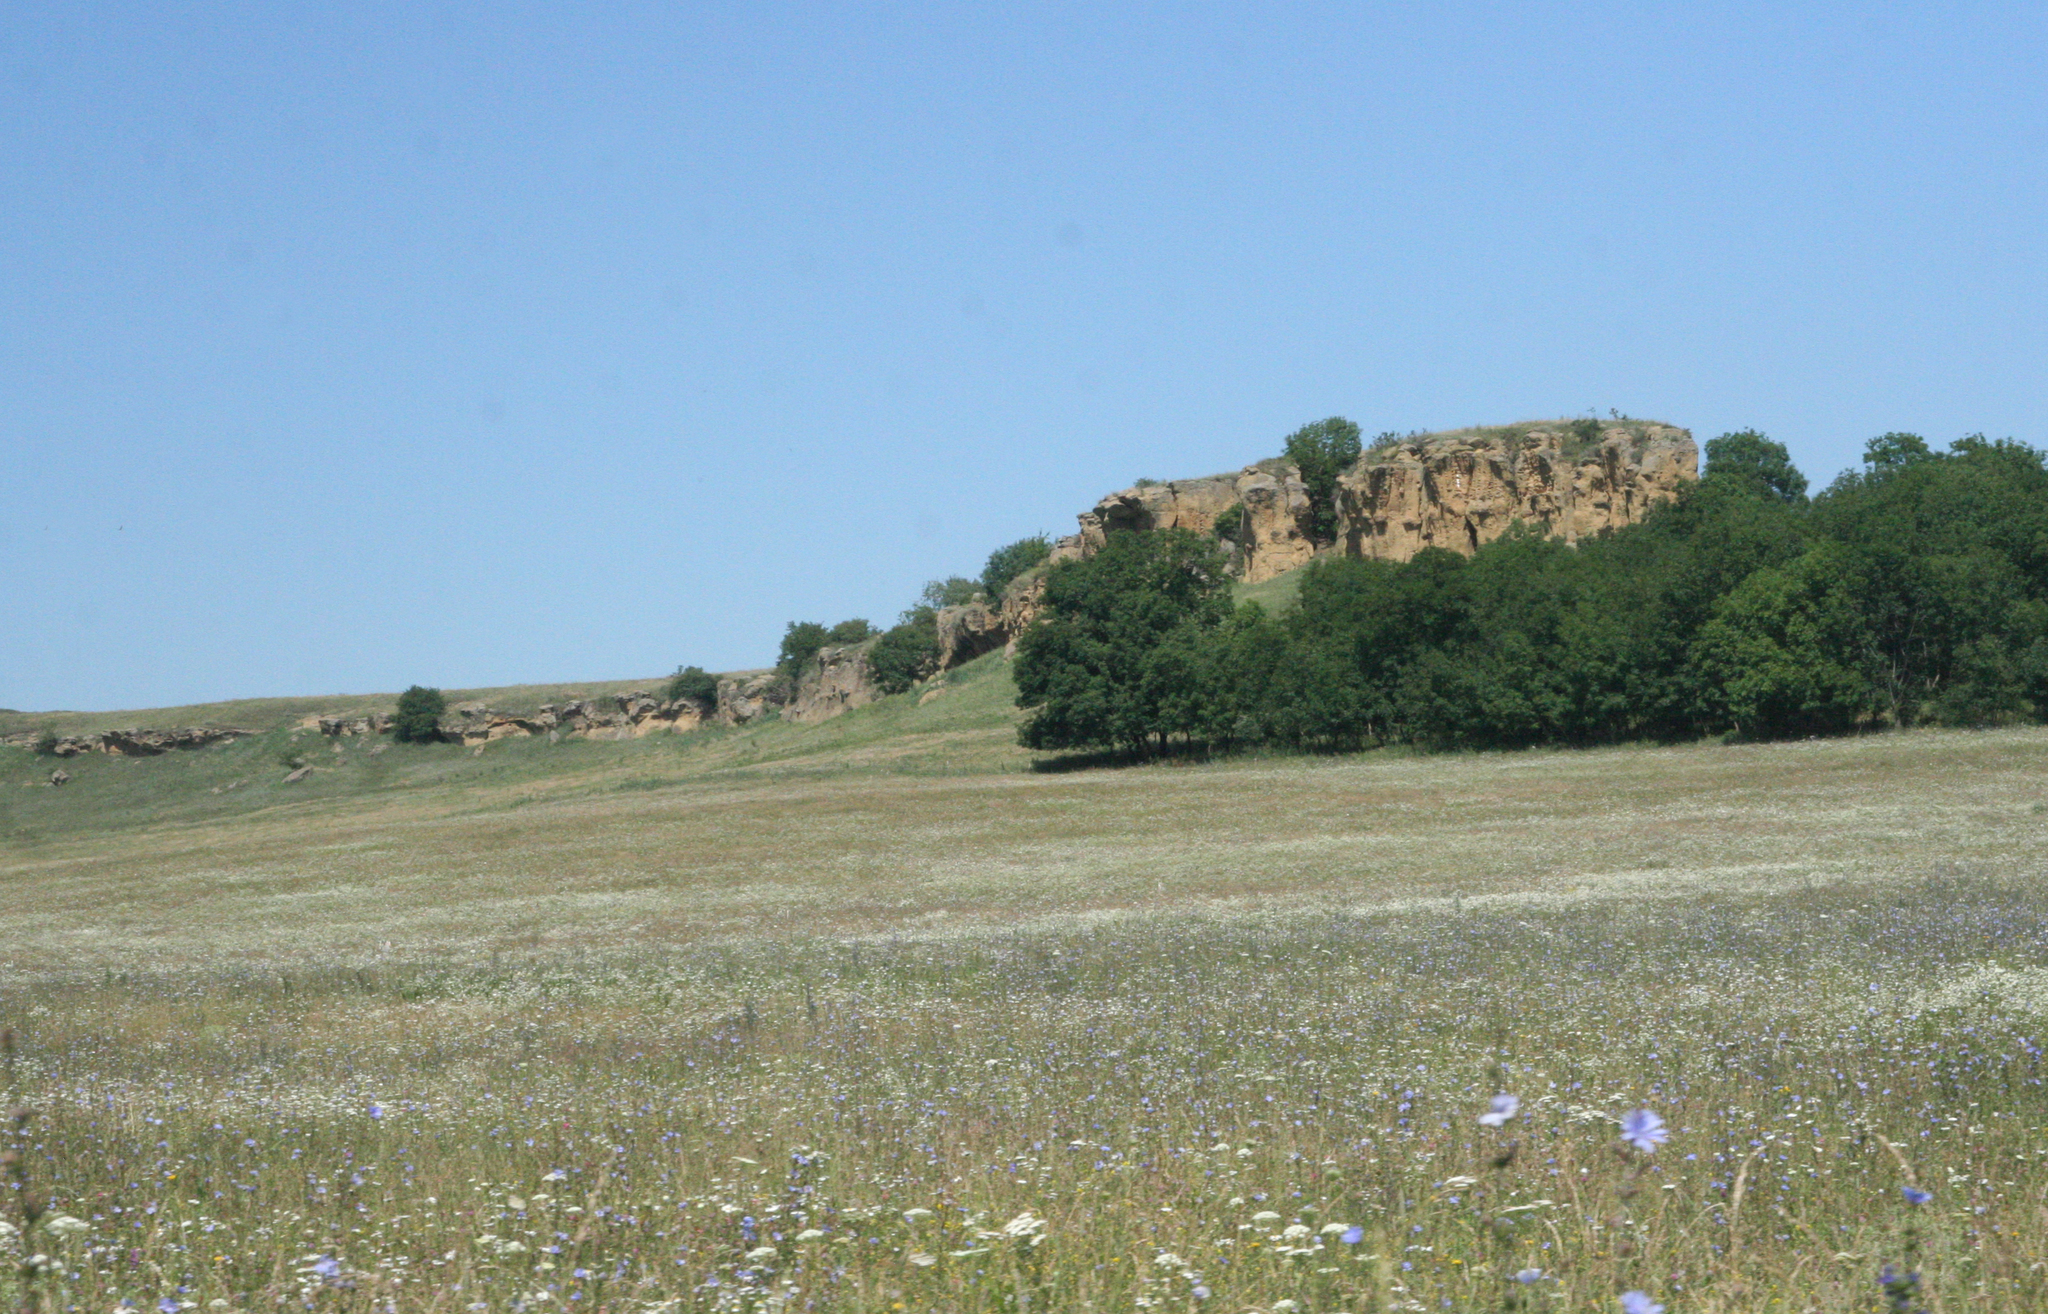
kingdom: Plantae
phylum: Tracheophyta
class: Magnoliopsida
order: Asterales
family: Asteraceae
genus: Cichorium
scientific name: Cichorium intybus
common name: Chicory
